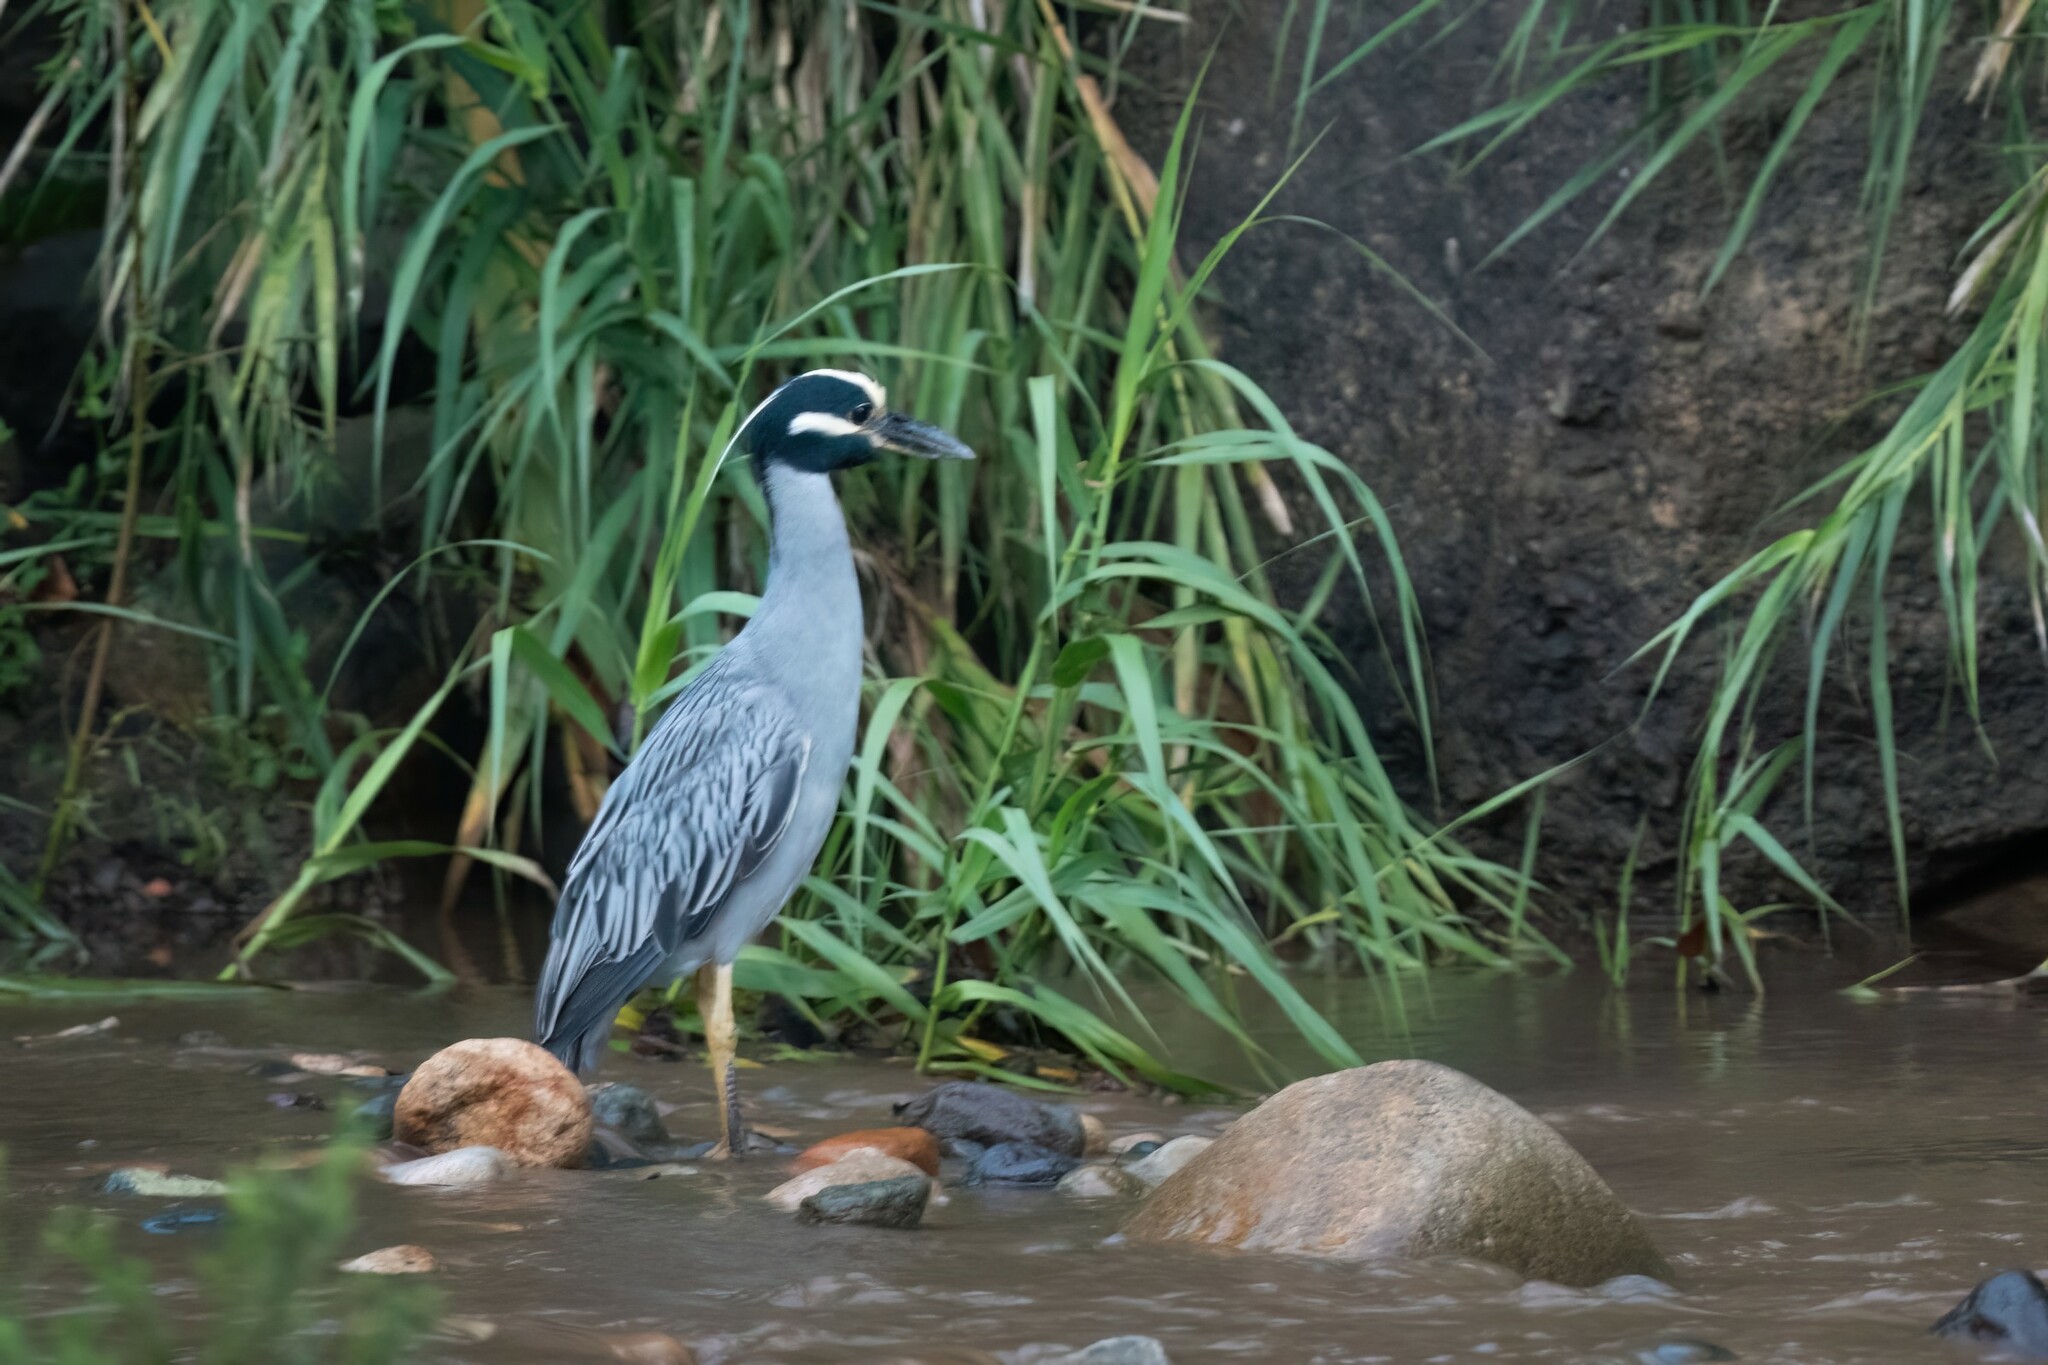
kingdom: Animalia
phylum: Chordata
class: Aves
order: Pelecaniformes
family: Ardeidae
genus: Nyctanassa
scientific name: Nyctanassa violacea
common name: Yellow-crowned night heron
